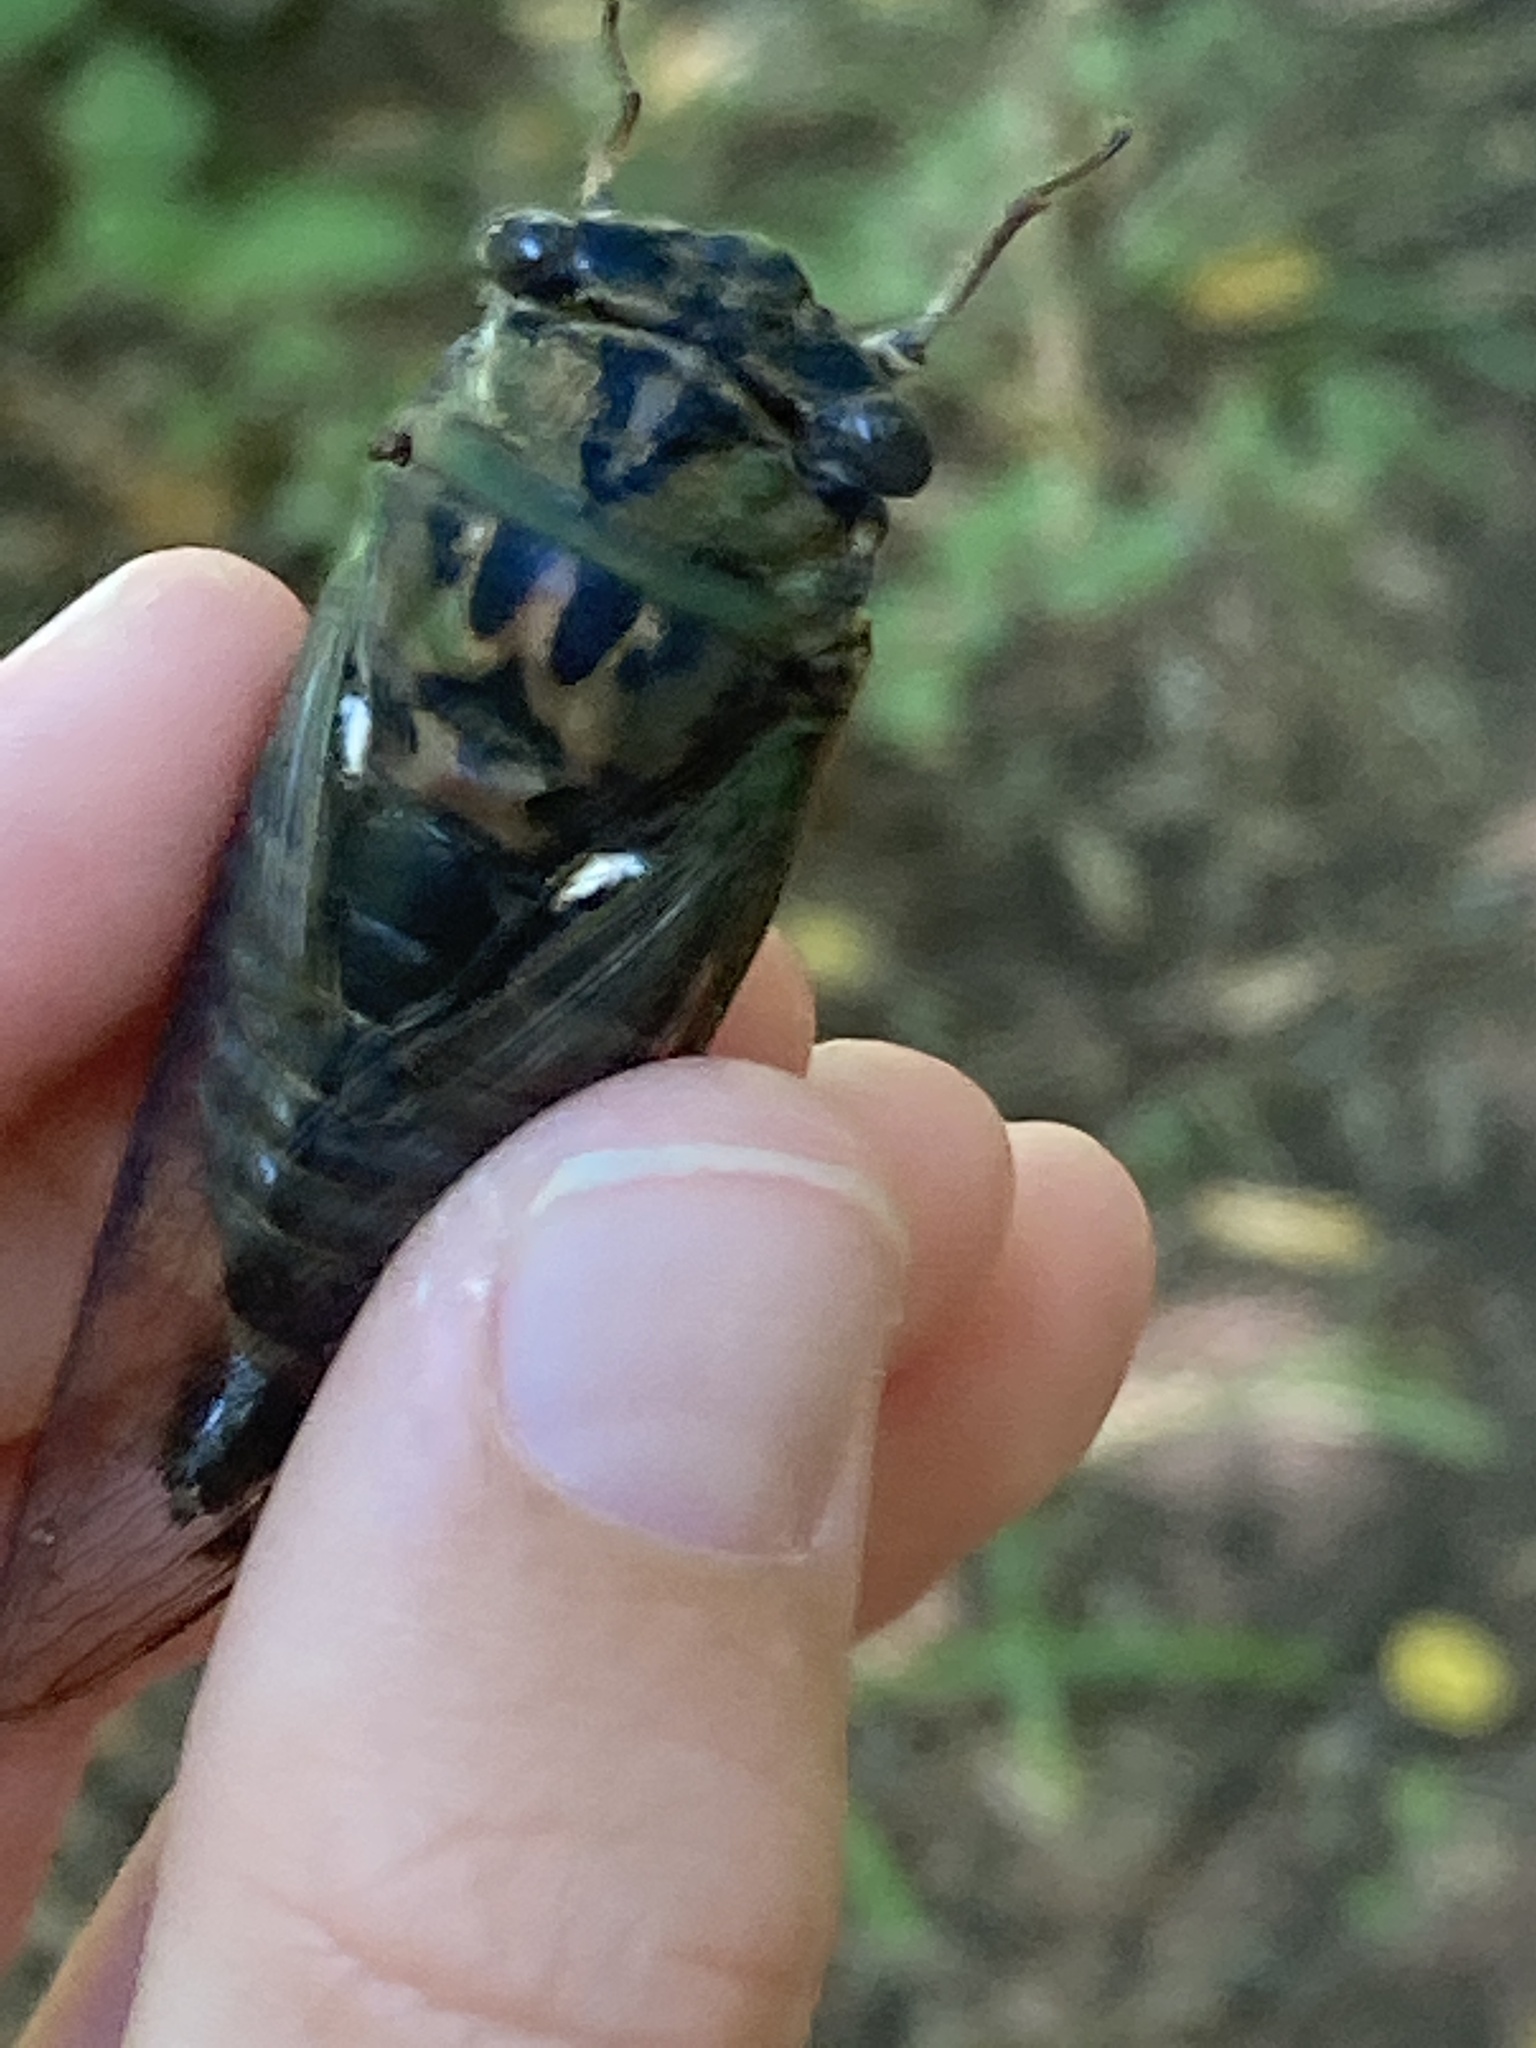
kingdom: Animalia
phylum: Arthropoda
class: Insecta
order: Hemiptera
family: Cicadidae
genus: Neotibicen
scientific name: Neotibicen pruinosus
